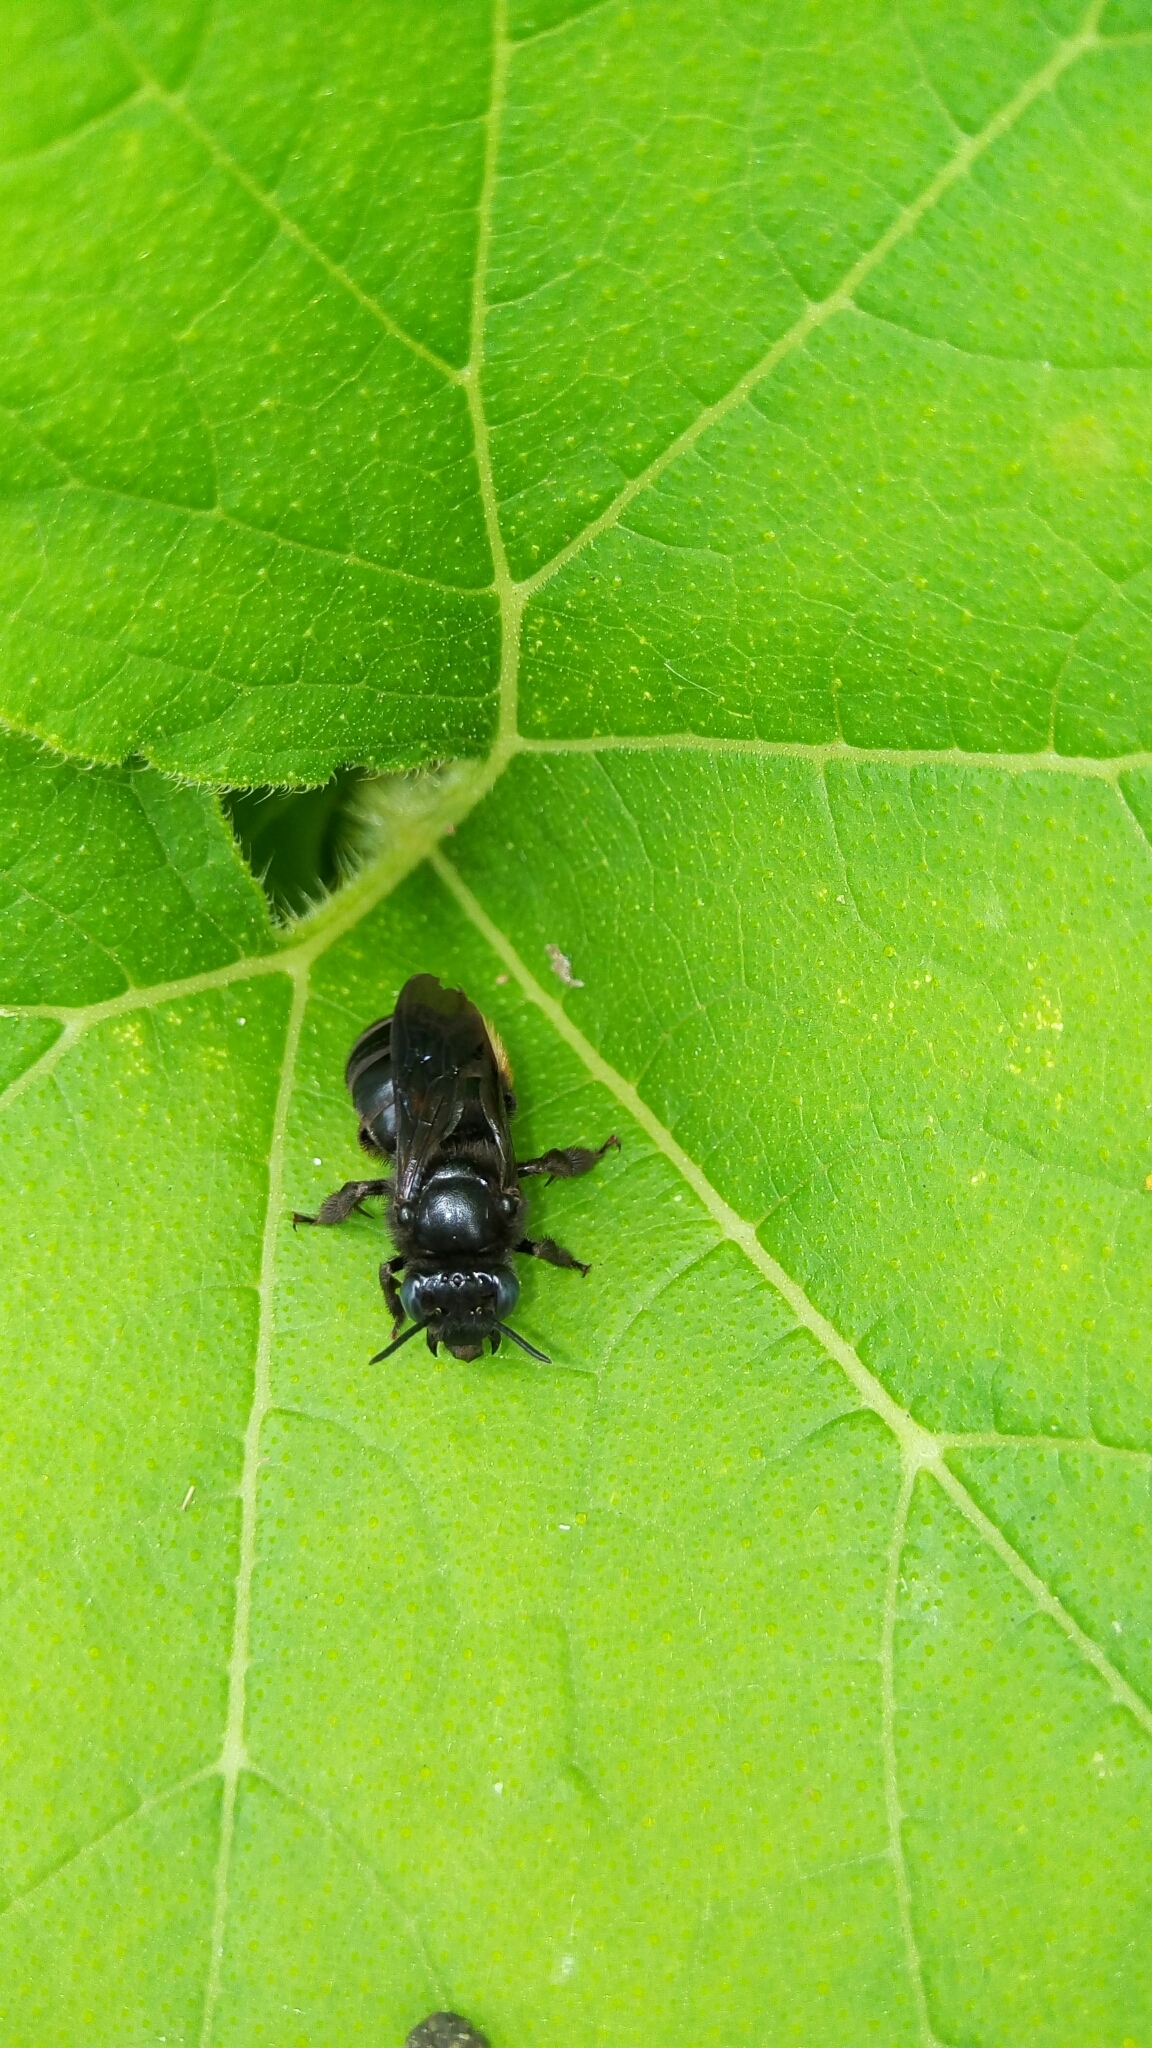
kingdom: Animalia
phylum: Arthropoda
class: Insecta
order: Hymenoptera
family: Apidae
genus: Melissodes
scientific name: Melissodes bimaculatus
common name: Two-spotted long-horned bee
